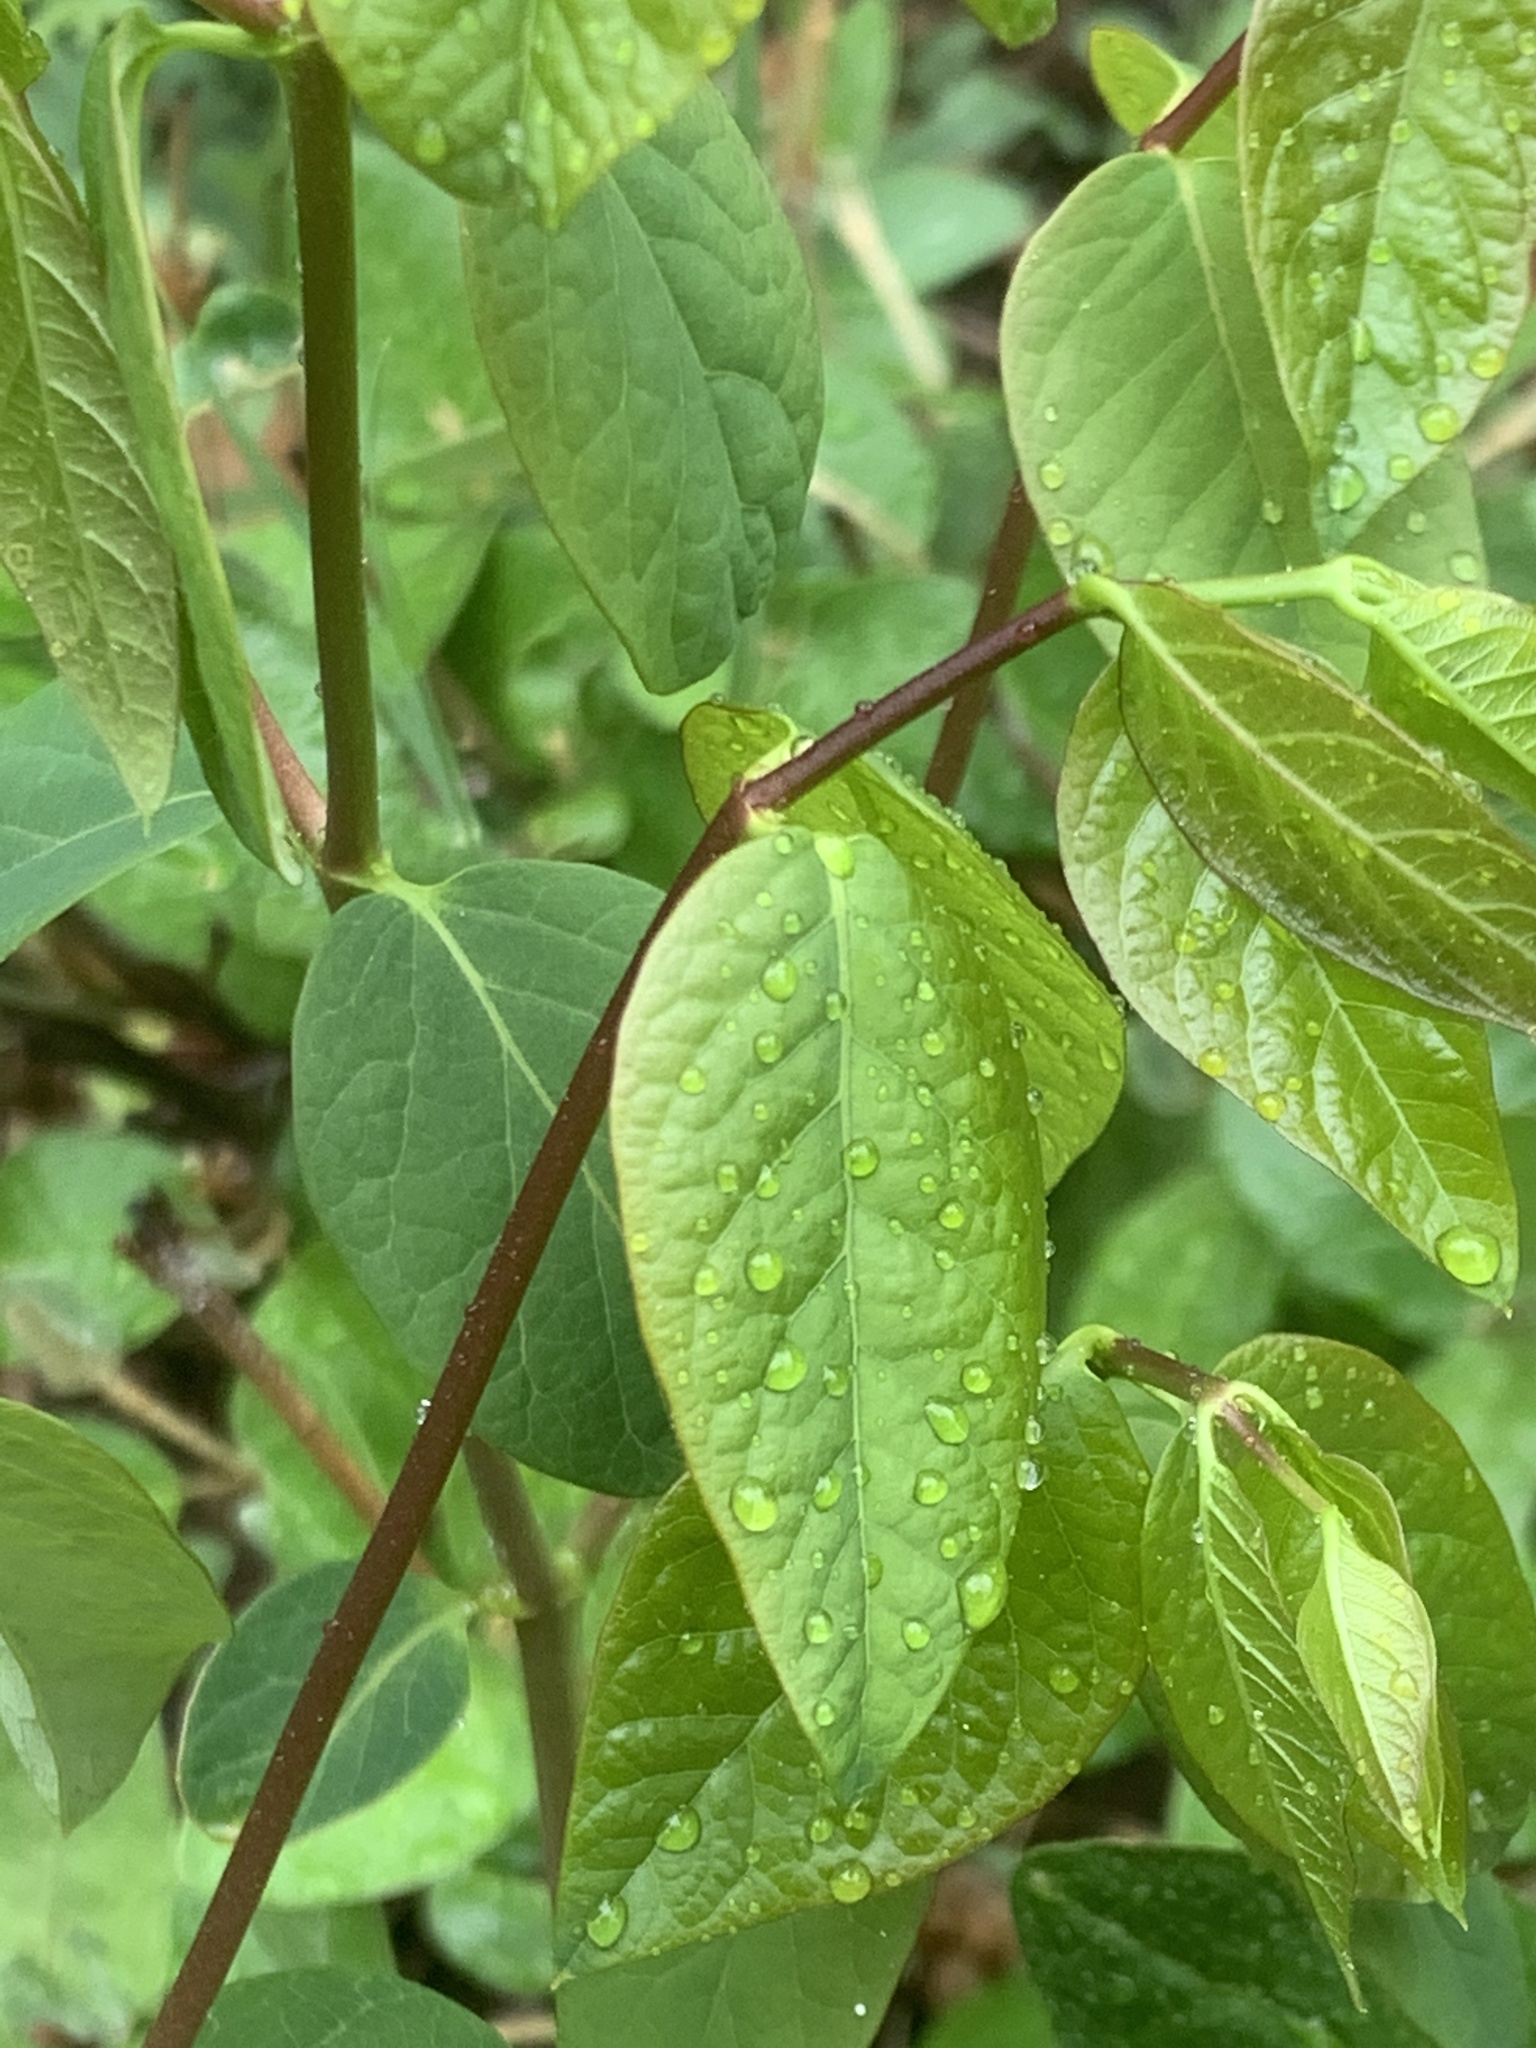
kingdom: Plantae
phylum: Tracheophyta
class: Magnoliopsida
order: Gentianales
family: Apocynaceae
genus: Apocynum
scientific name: Apocynum androsaemifolium
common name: Spreading dogbane
